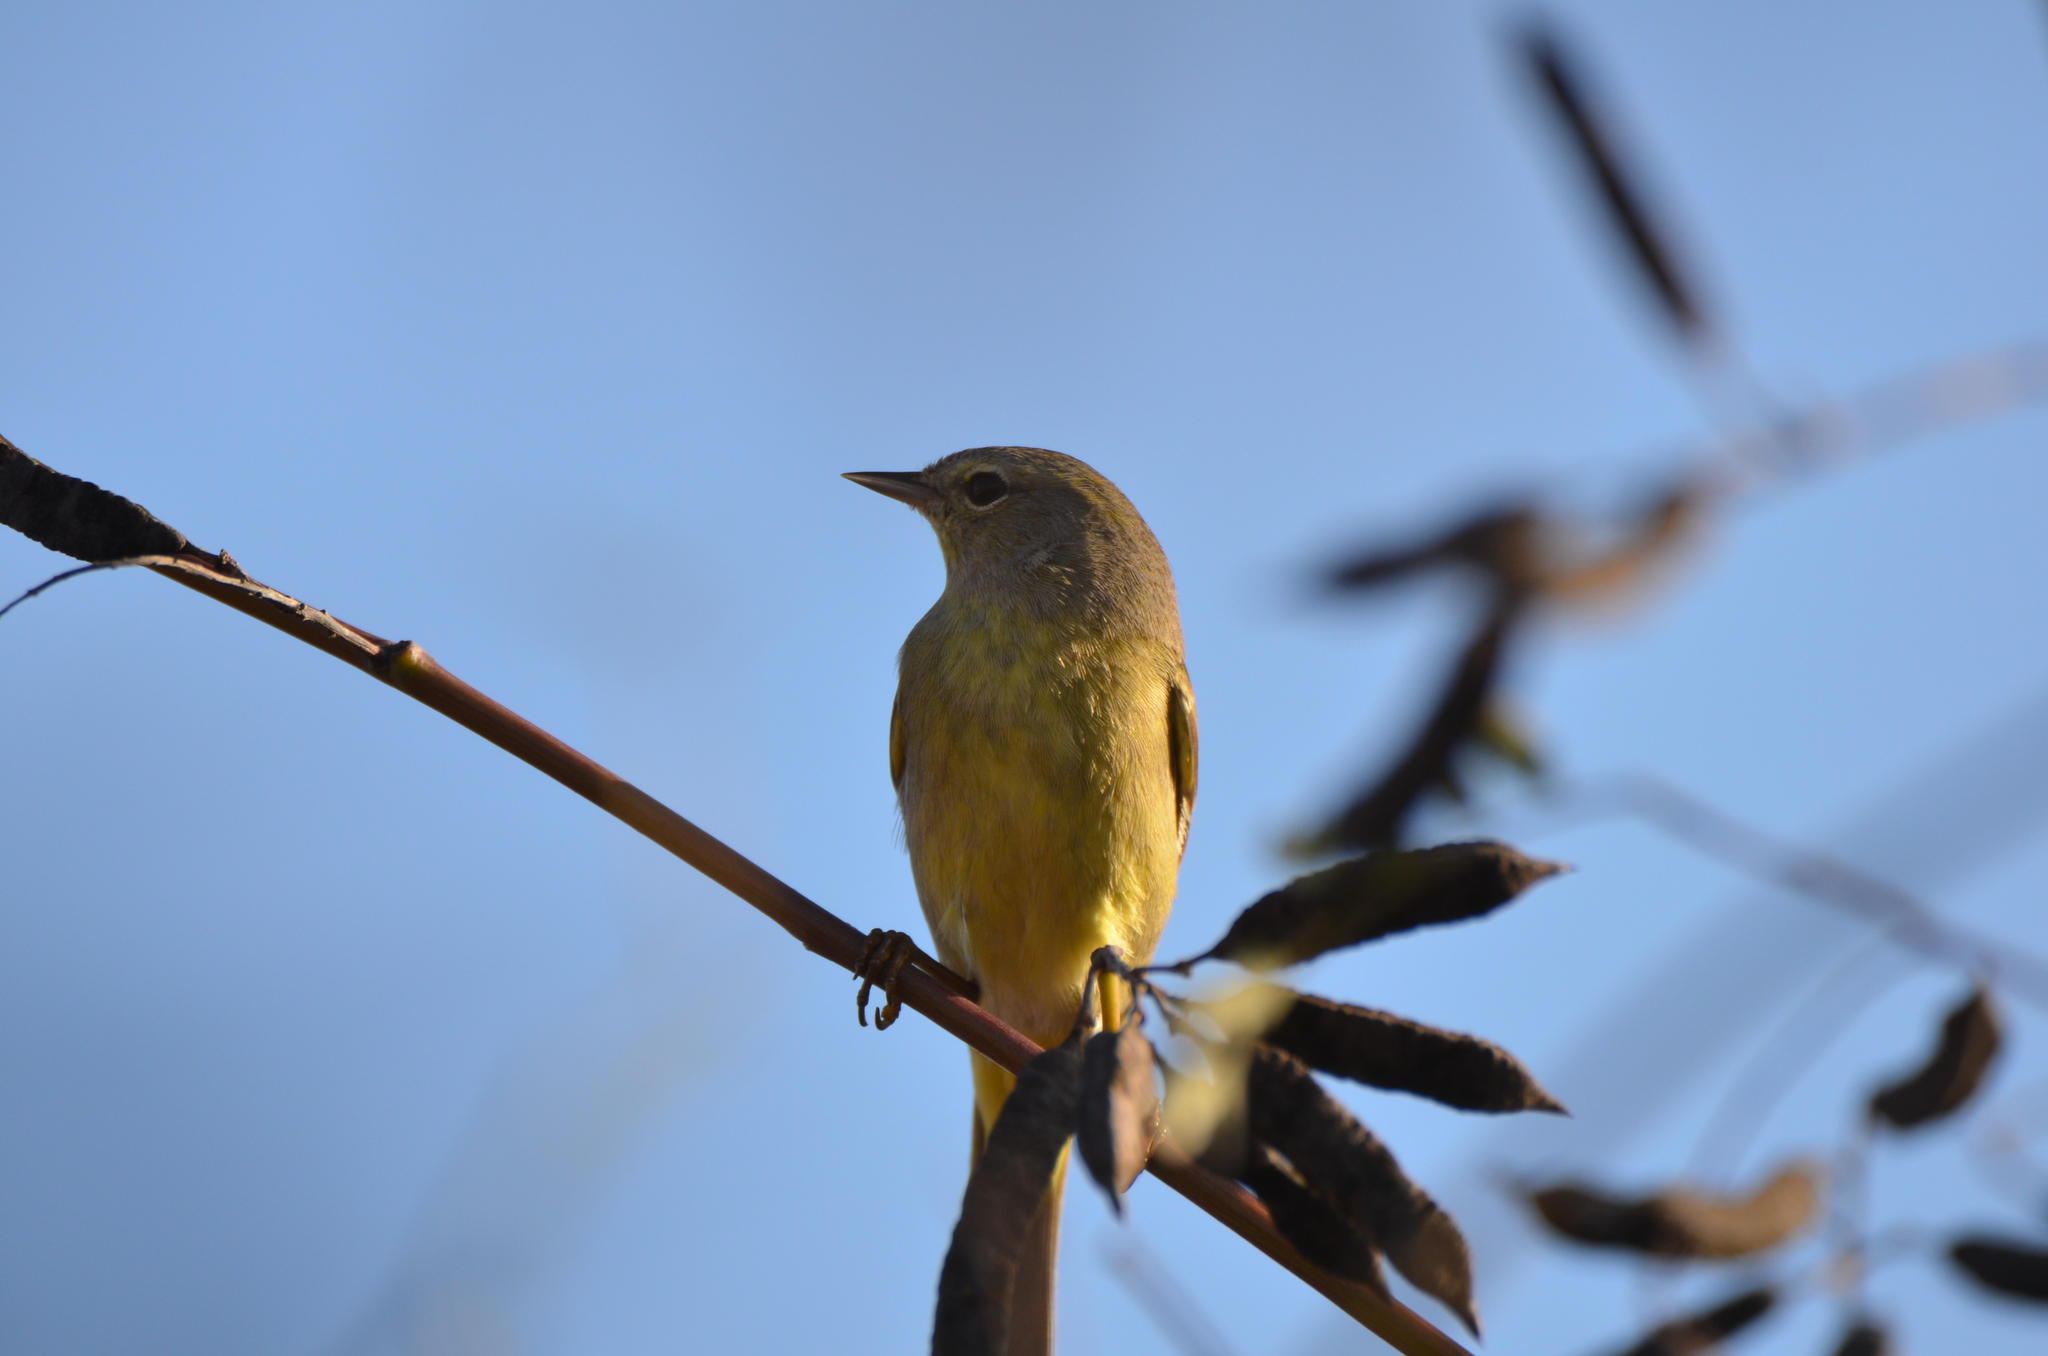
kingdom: Animalia
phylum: Chordata
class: Aves
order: Passeriformes
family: Parulidae
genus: Leiothlypis
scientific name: Leiothlypis celata
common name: Orange-crowned warbler
